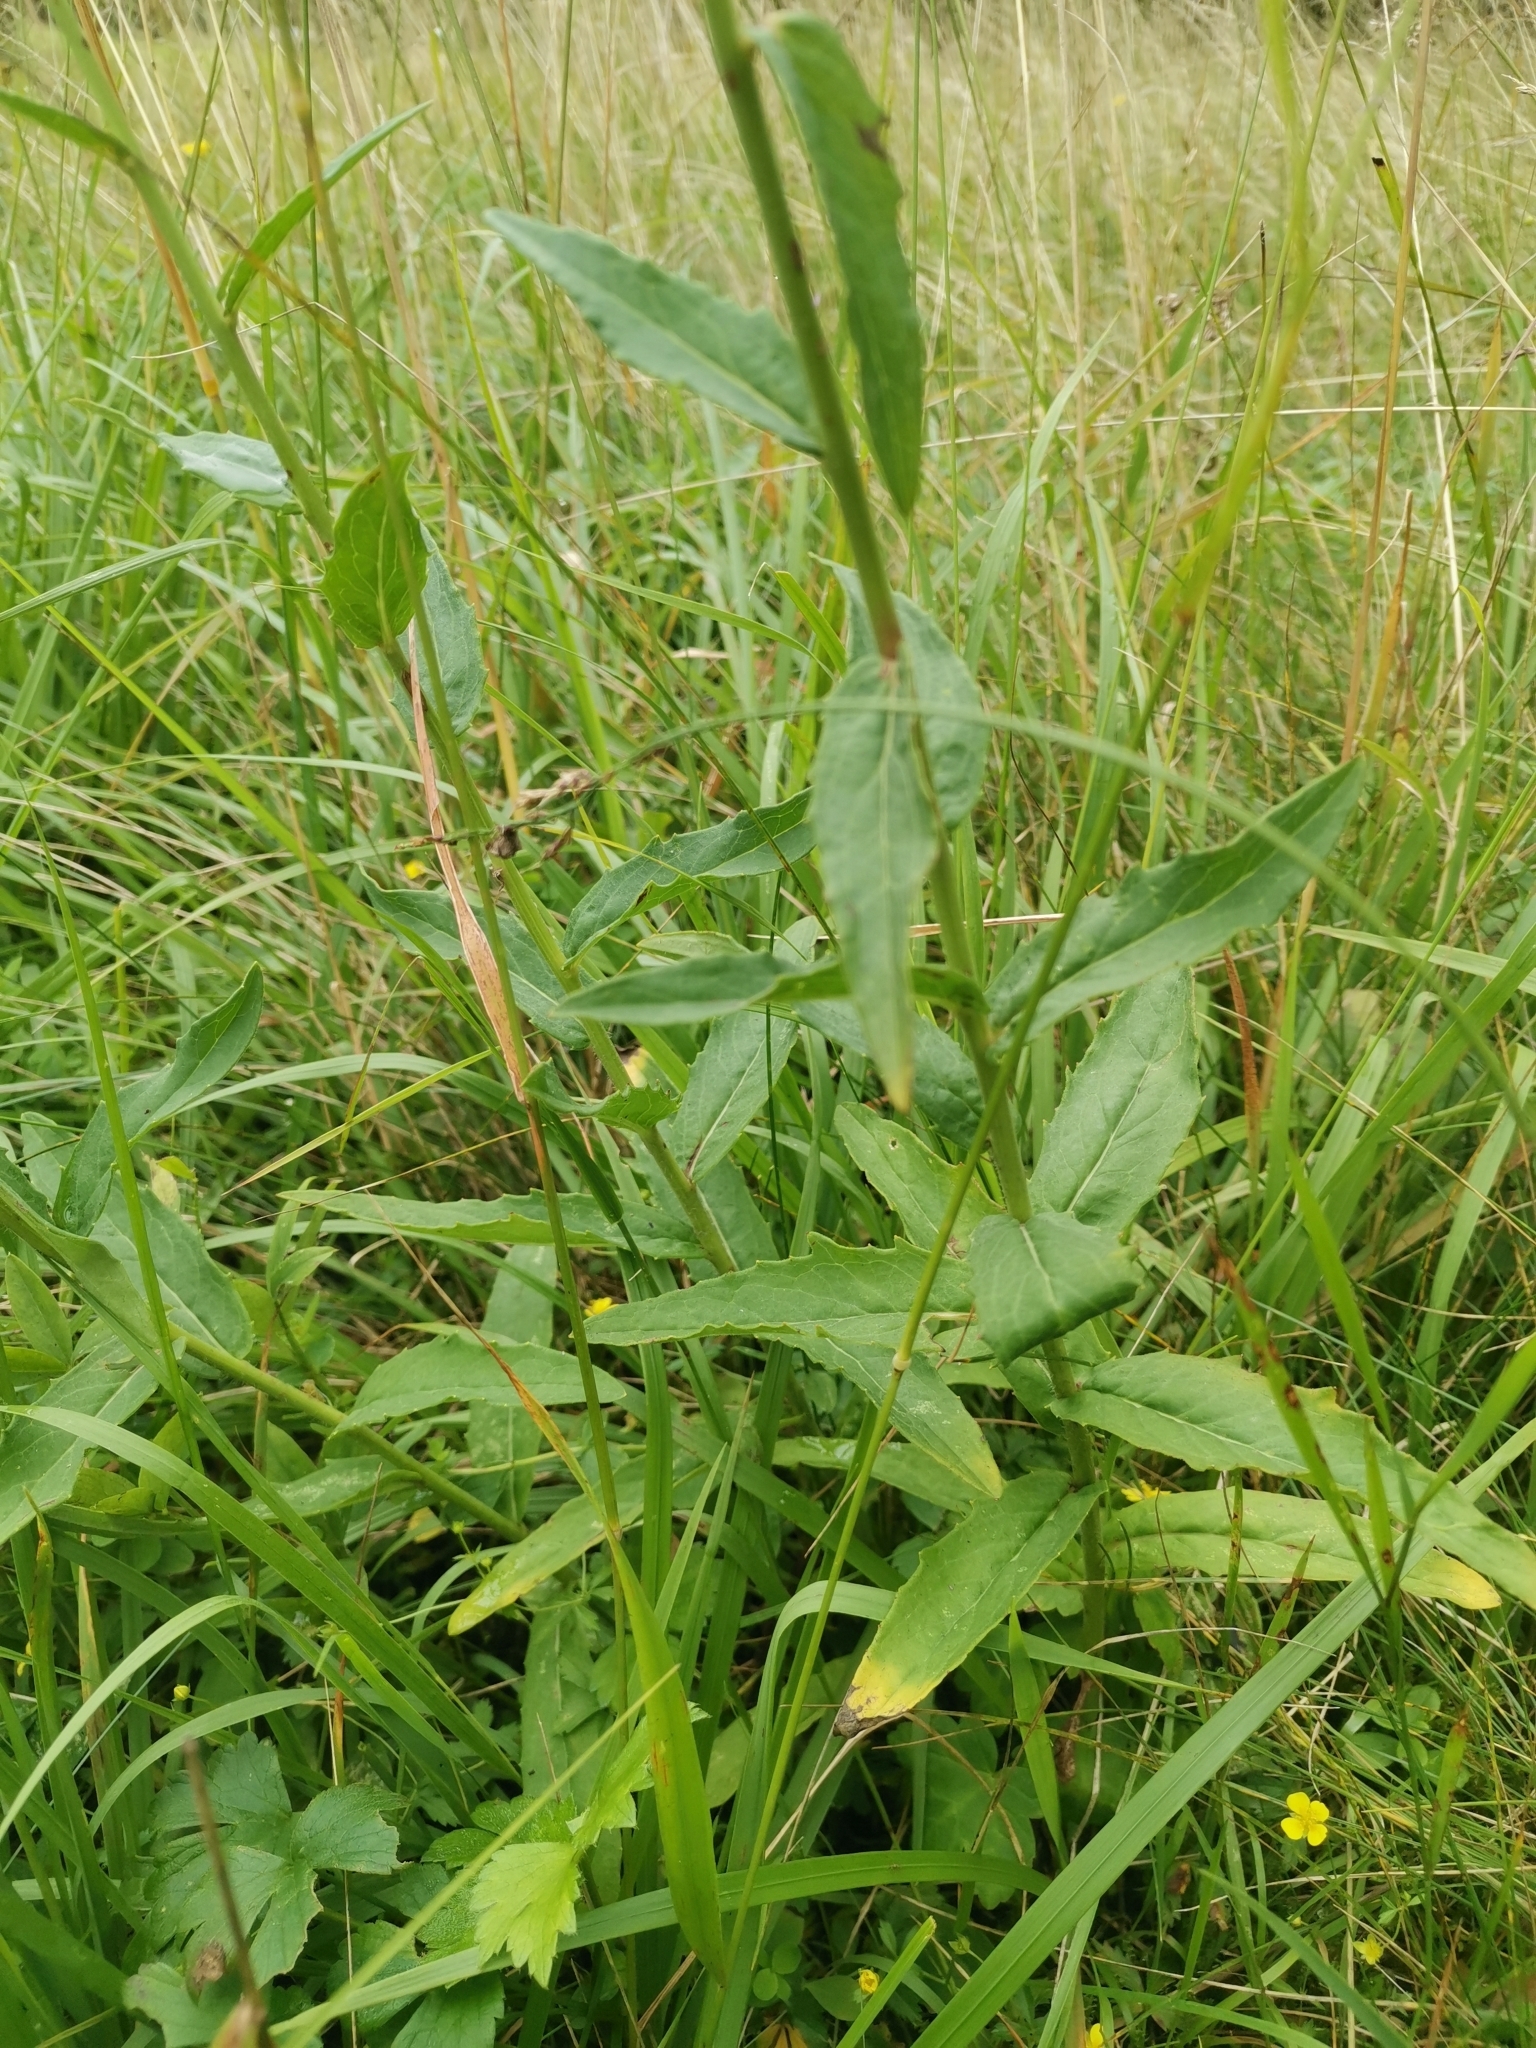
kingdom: Plantae
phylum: Tracheophyta
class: Magnoliopsida
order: Asterales
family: Asteraceae
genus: Hieracium
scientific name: Hieracium umbellatum
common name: Northern hawkweed
